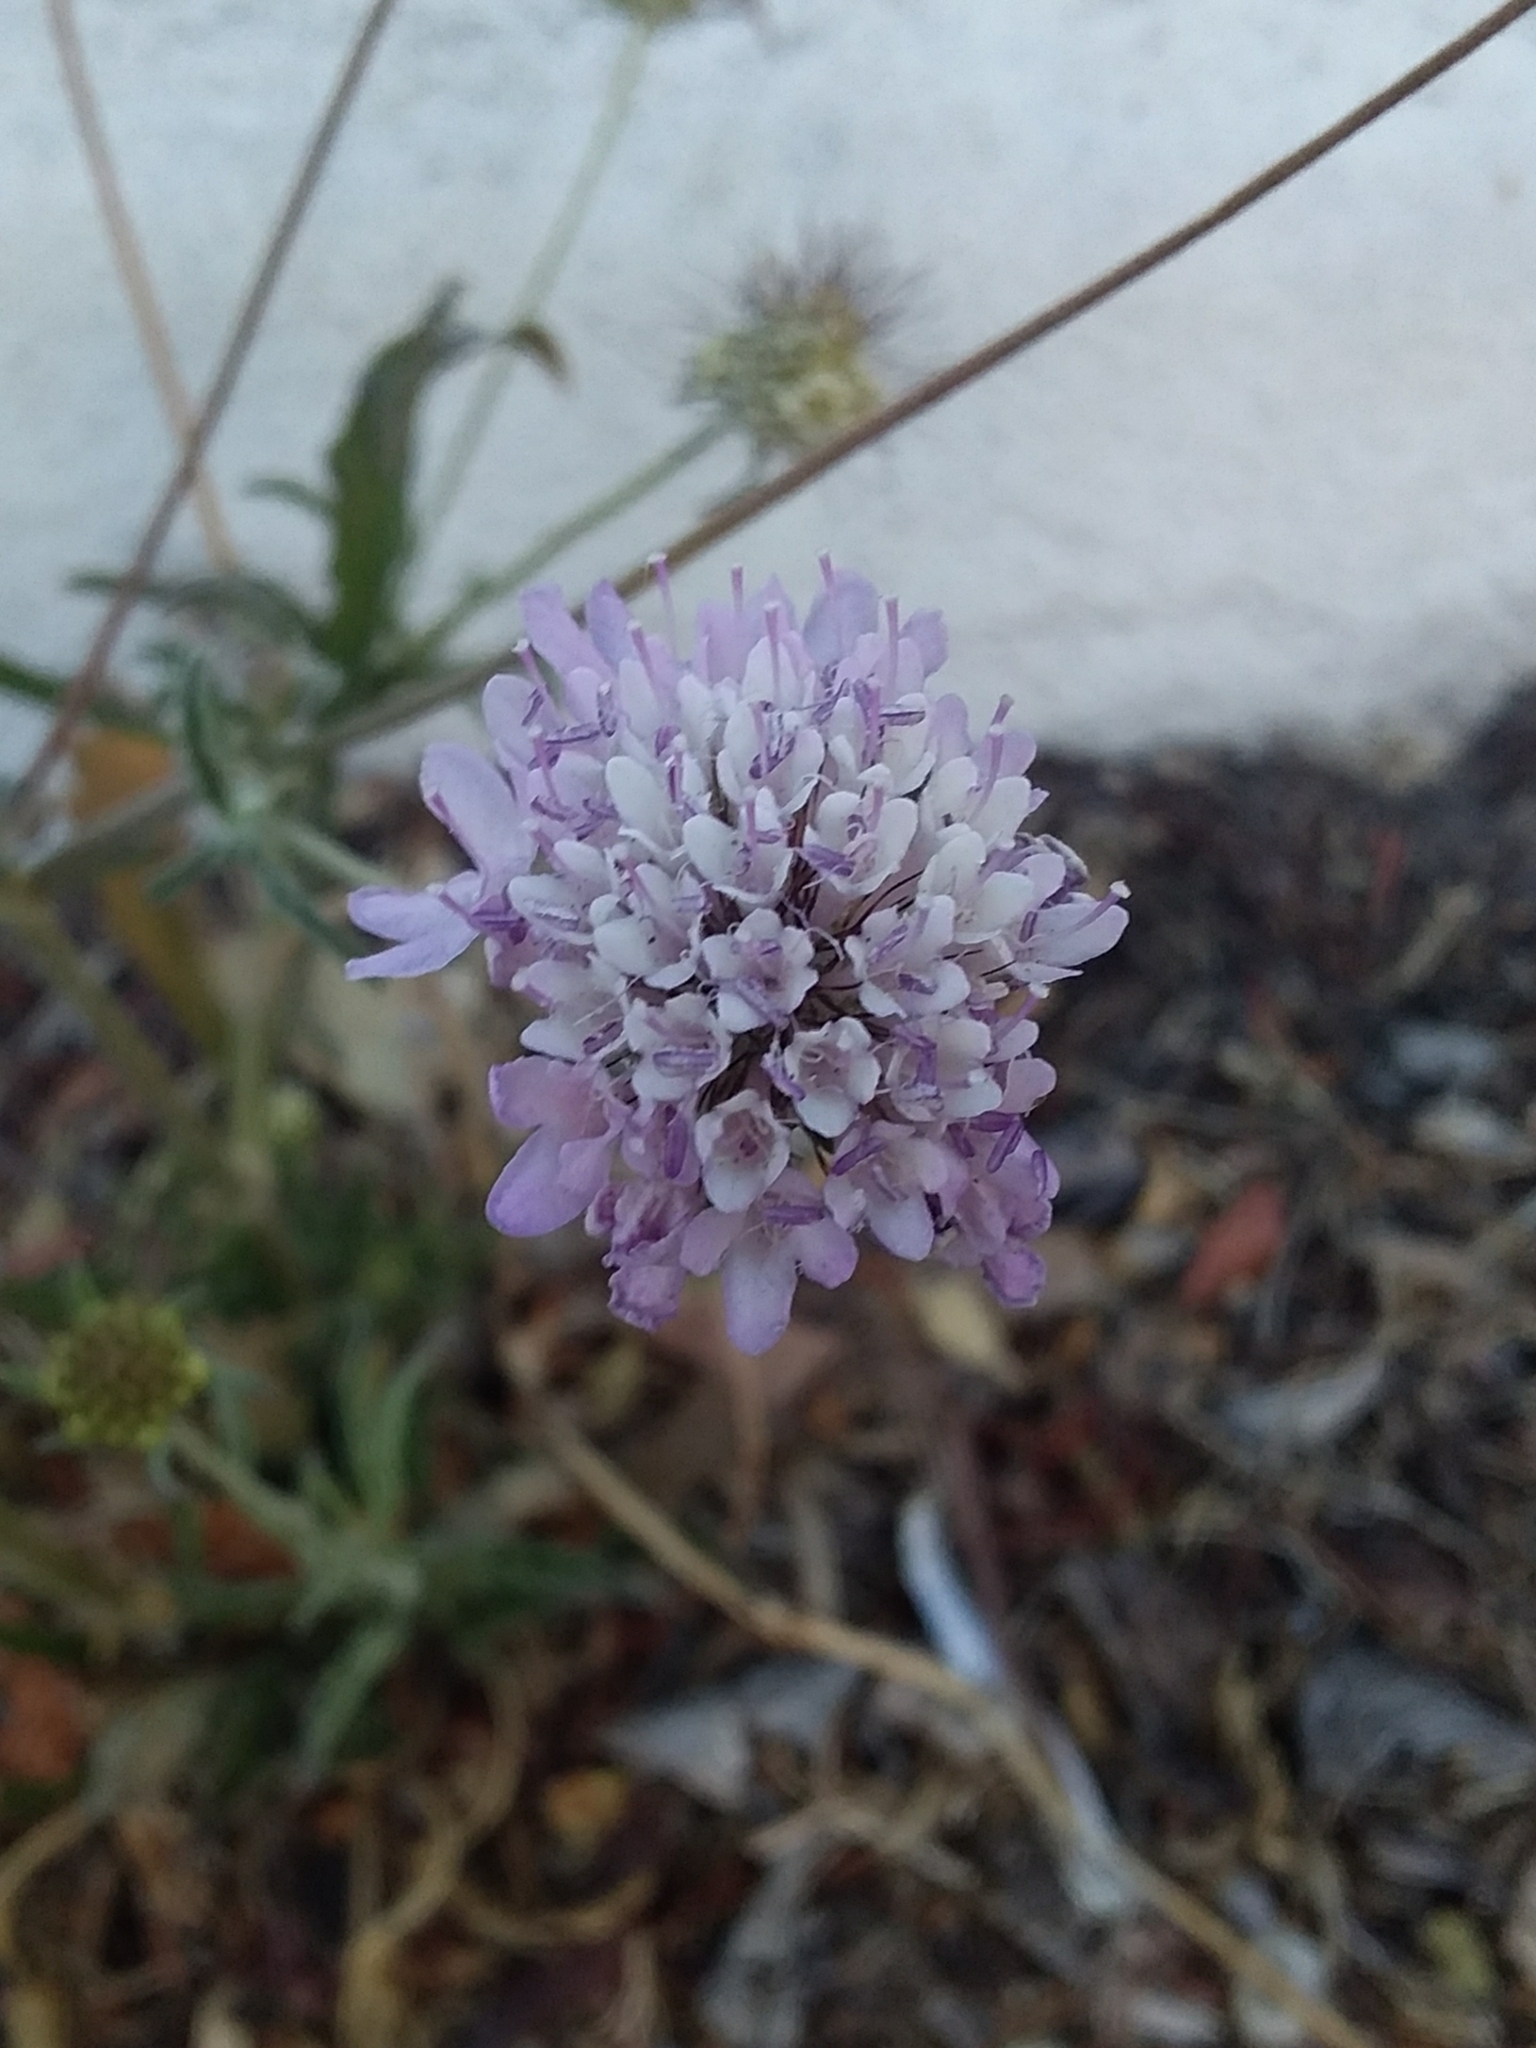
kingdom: Plantae
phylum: Tracheophyta
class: Magnoliopsida
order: Dipsacales
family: Caprifoliaceae
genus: Sixalix
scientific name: Sixalix atropurpurea
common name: Sweet scabious
